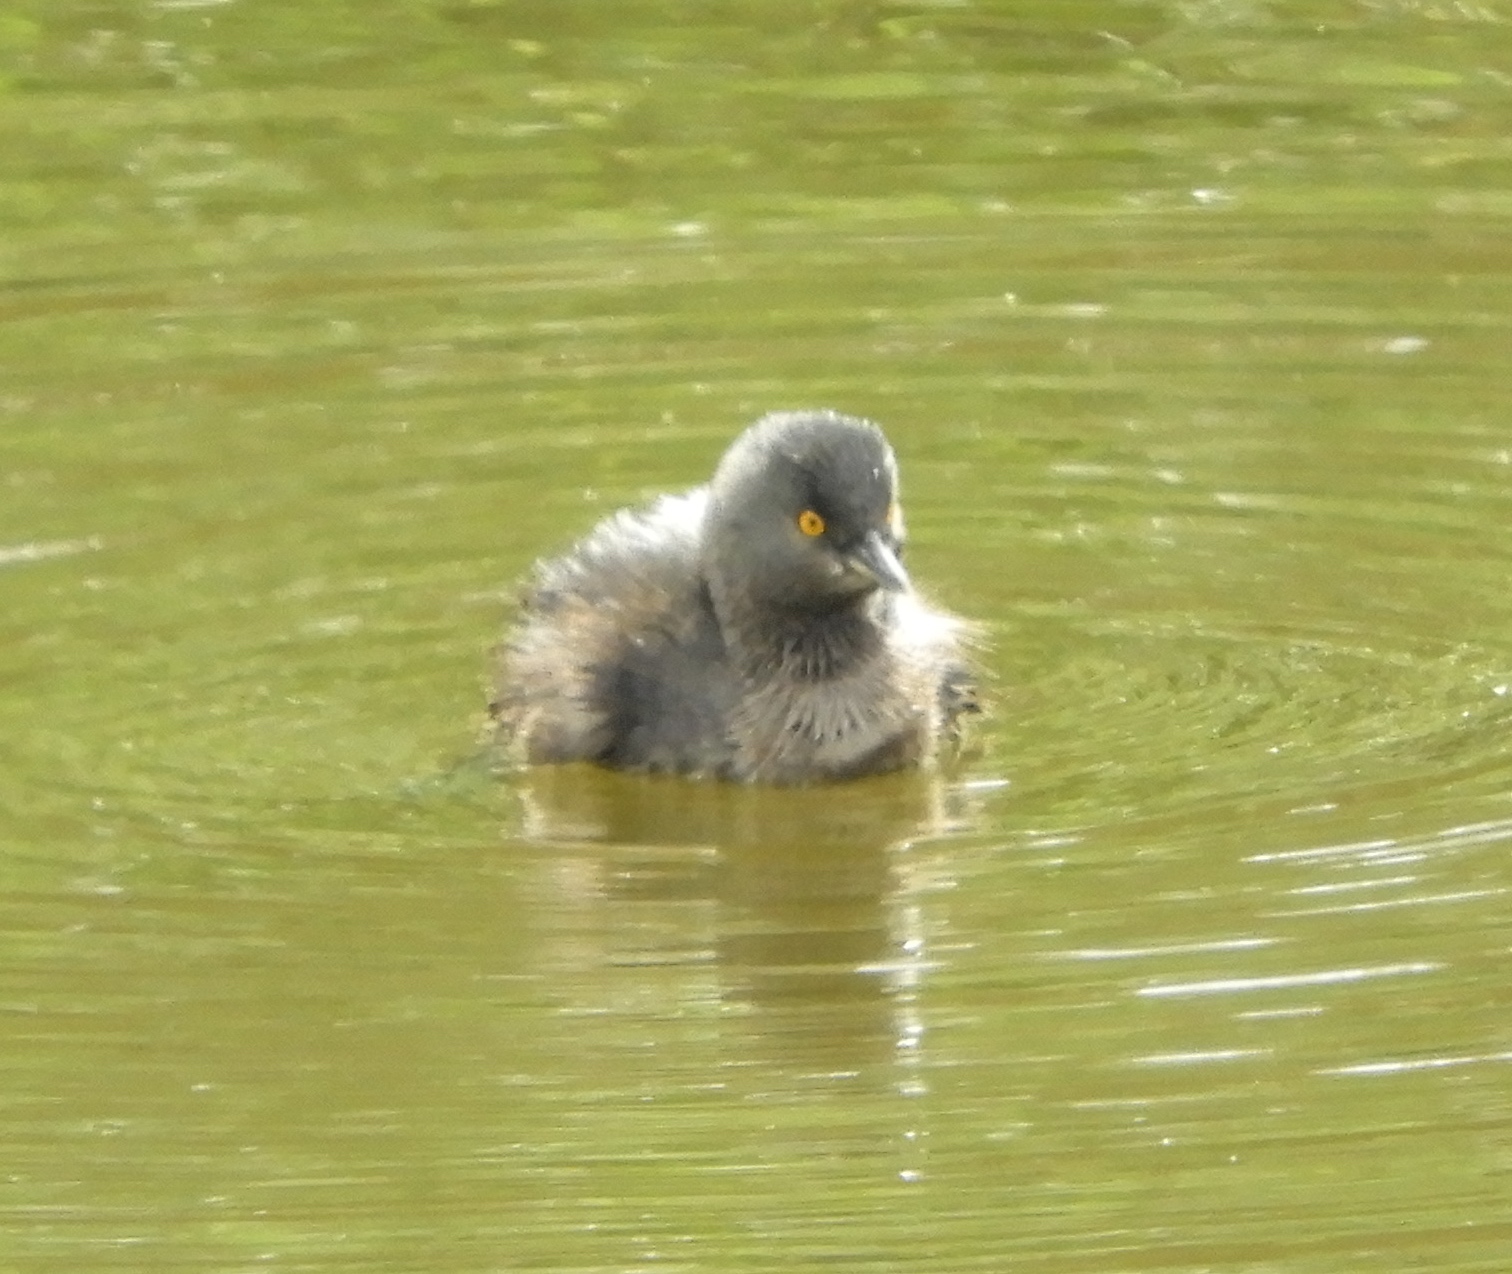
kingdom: Animalia
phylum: Chordata
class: Aves
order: Podicipediformes
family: Podicipedidae
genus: Tachybaptus
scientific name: Tachybaptus dominicus
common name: Least grebe
